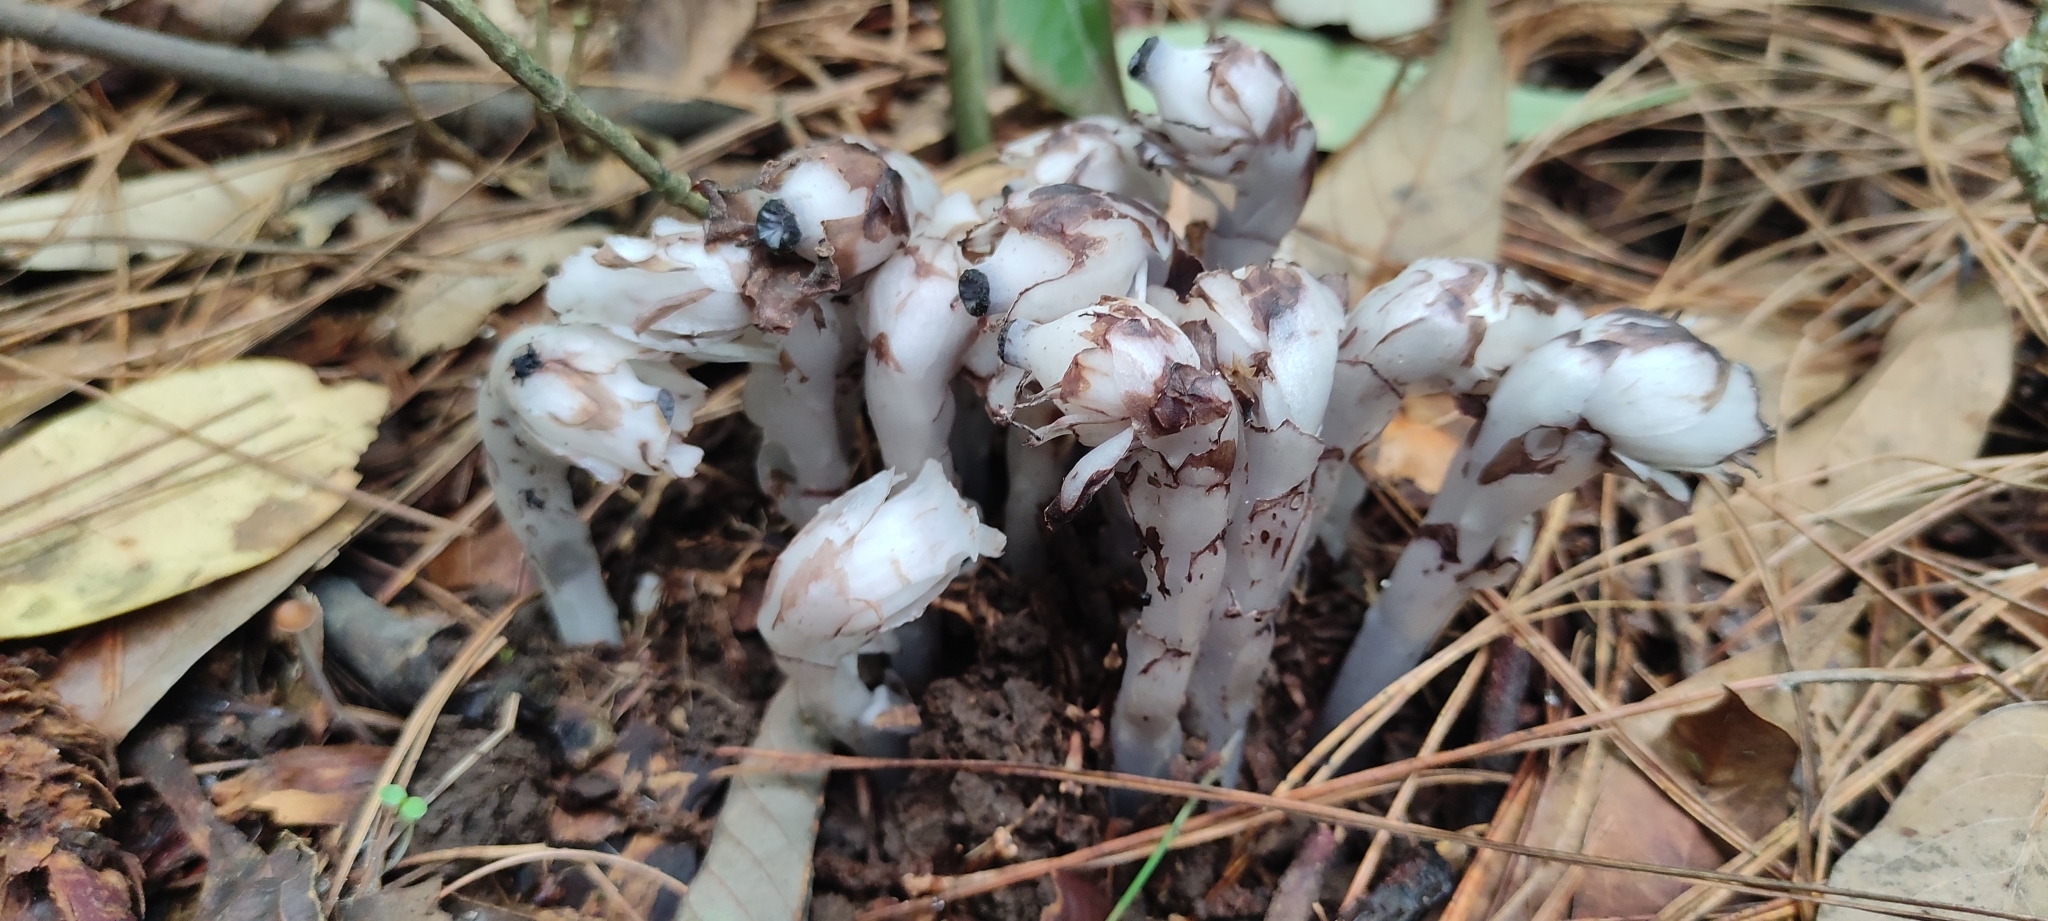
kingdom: Plantae
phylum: Tracheophyta
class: Magnoliopsida
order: Ericales
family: Ericaceae
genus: Monotropastrum
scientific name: Monotropastrum humile
